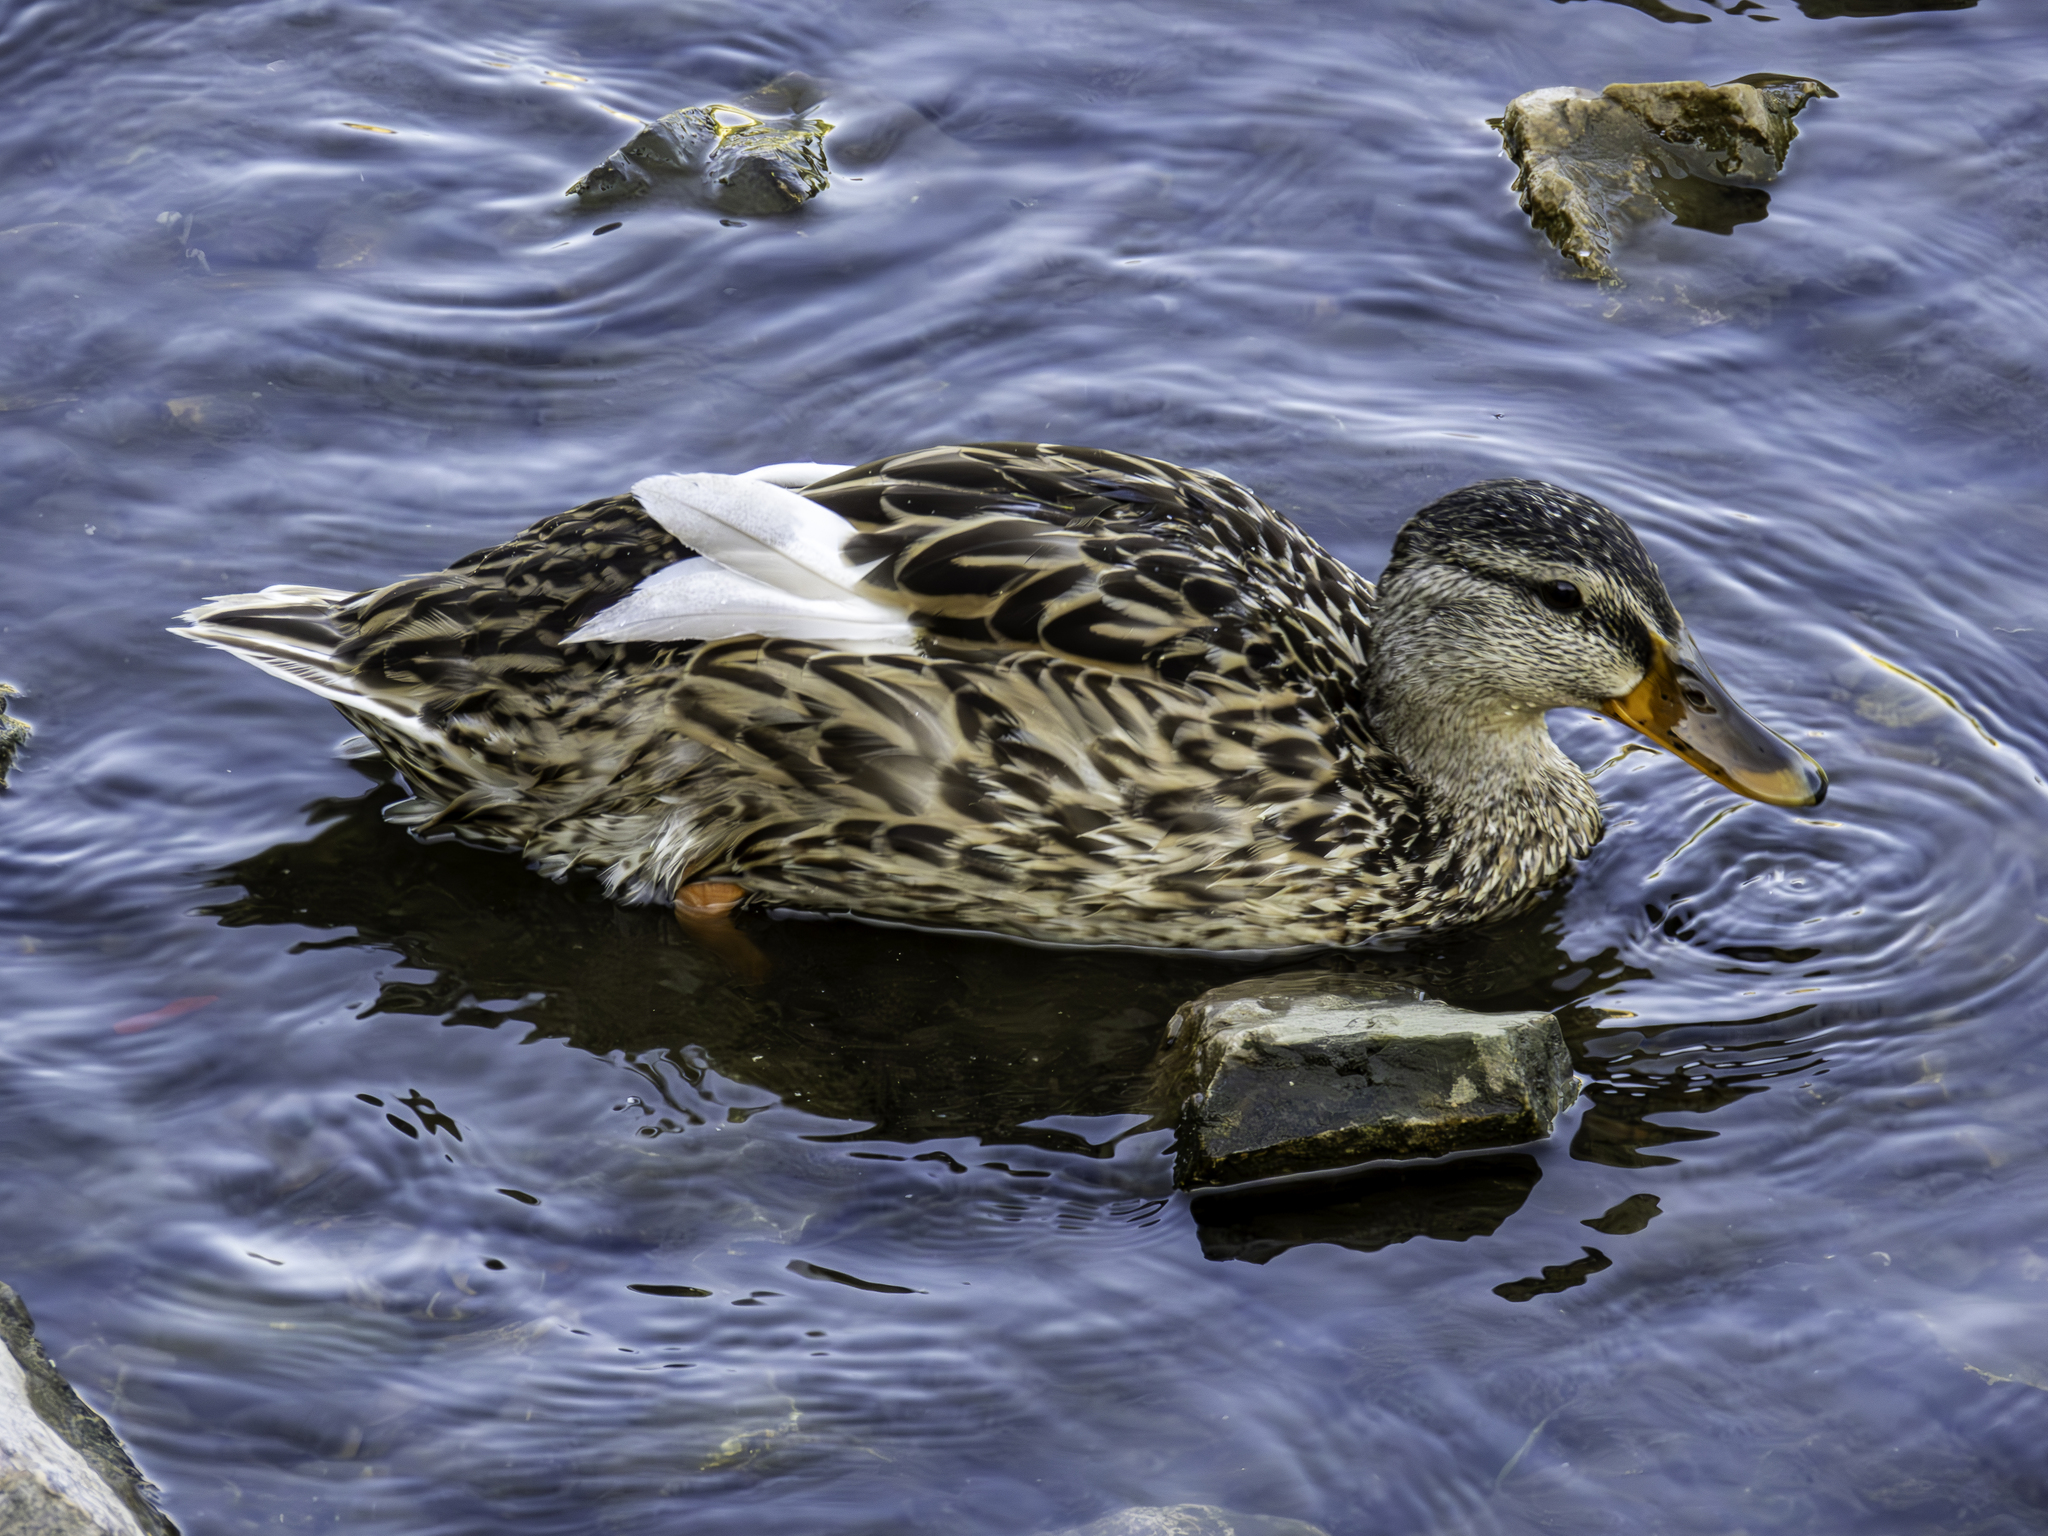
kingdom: Animalia
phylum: Chordata
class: Aves
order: Anseriformes
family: Anatidae
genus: Anas
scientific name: Anas platyrhynchos
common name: Mallard
